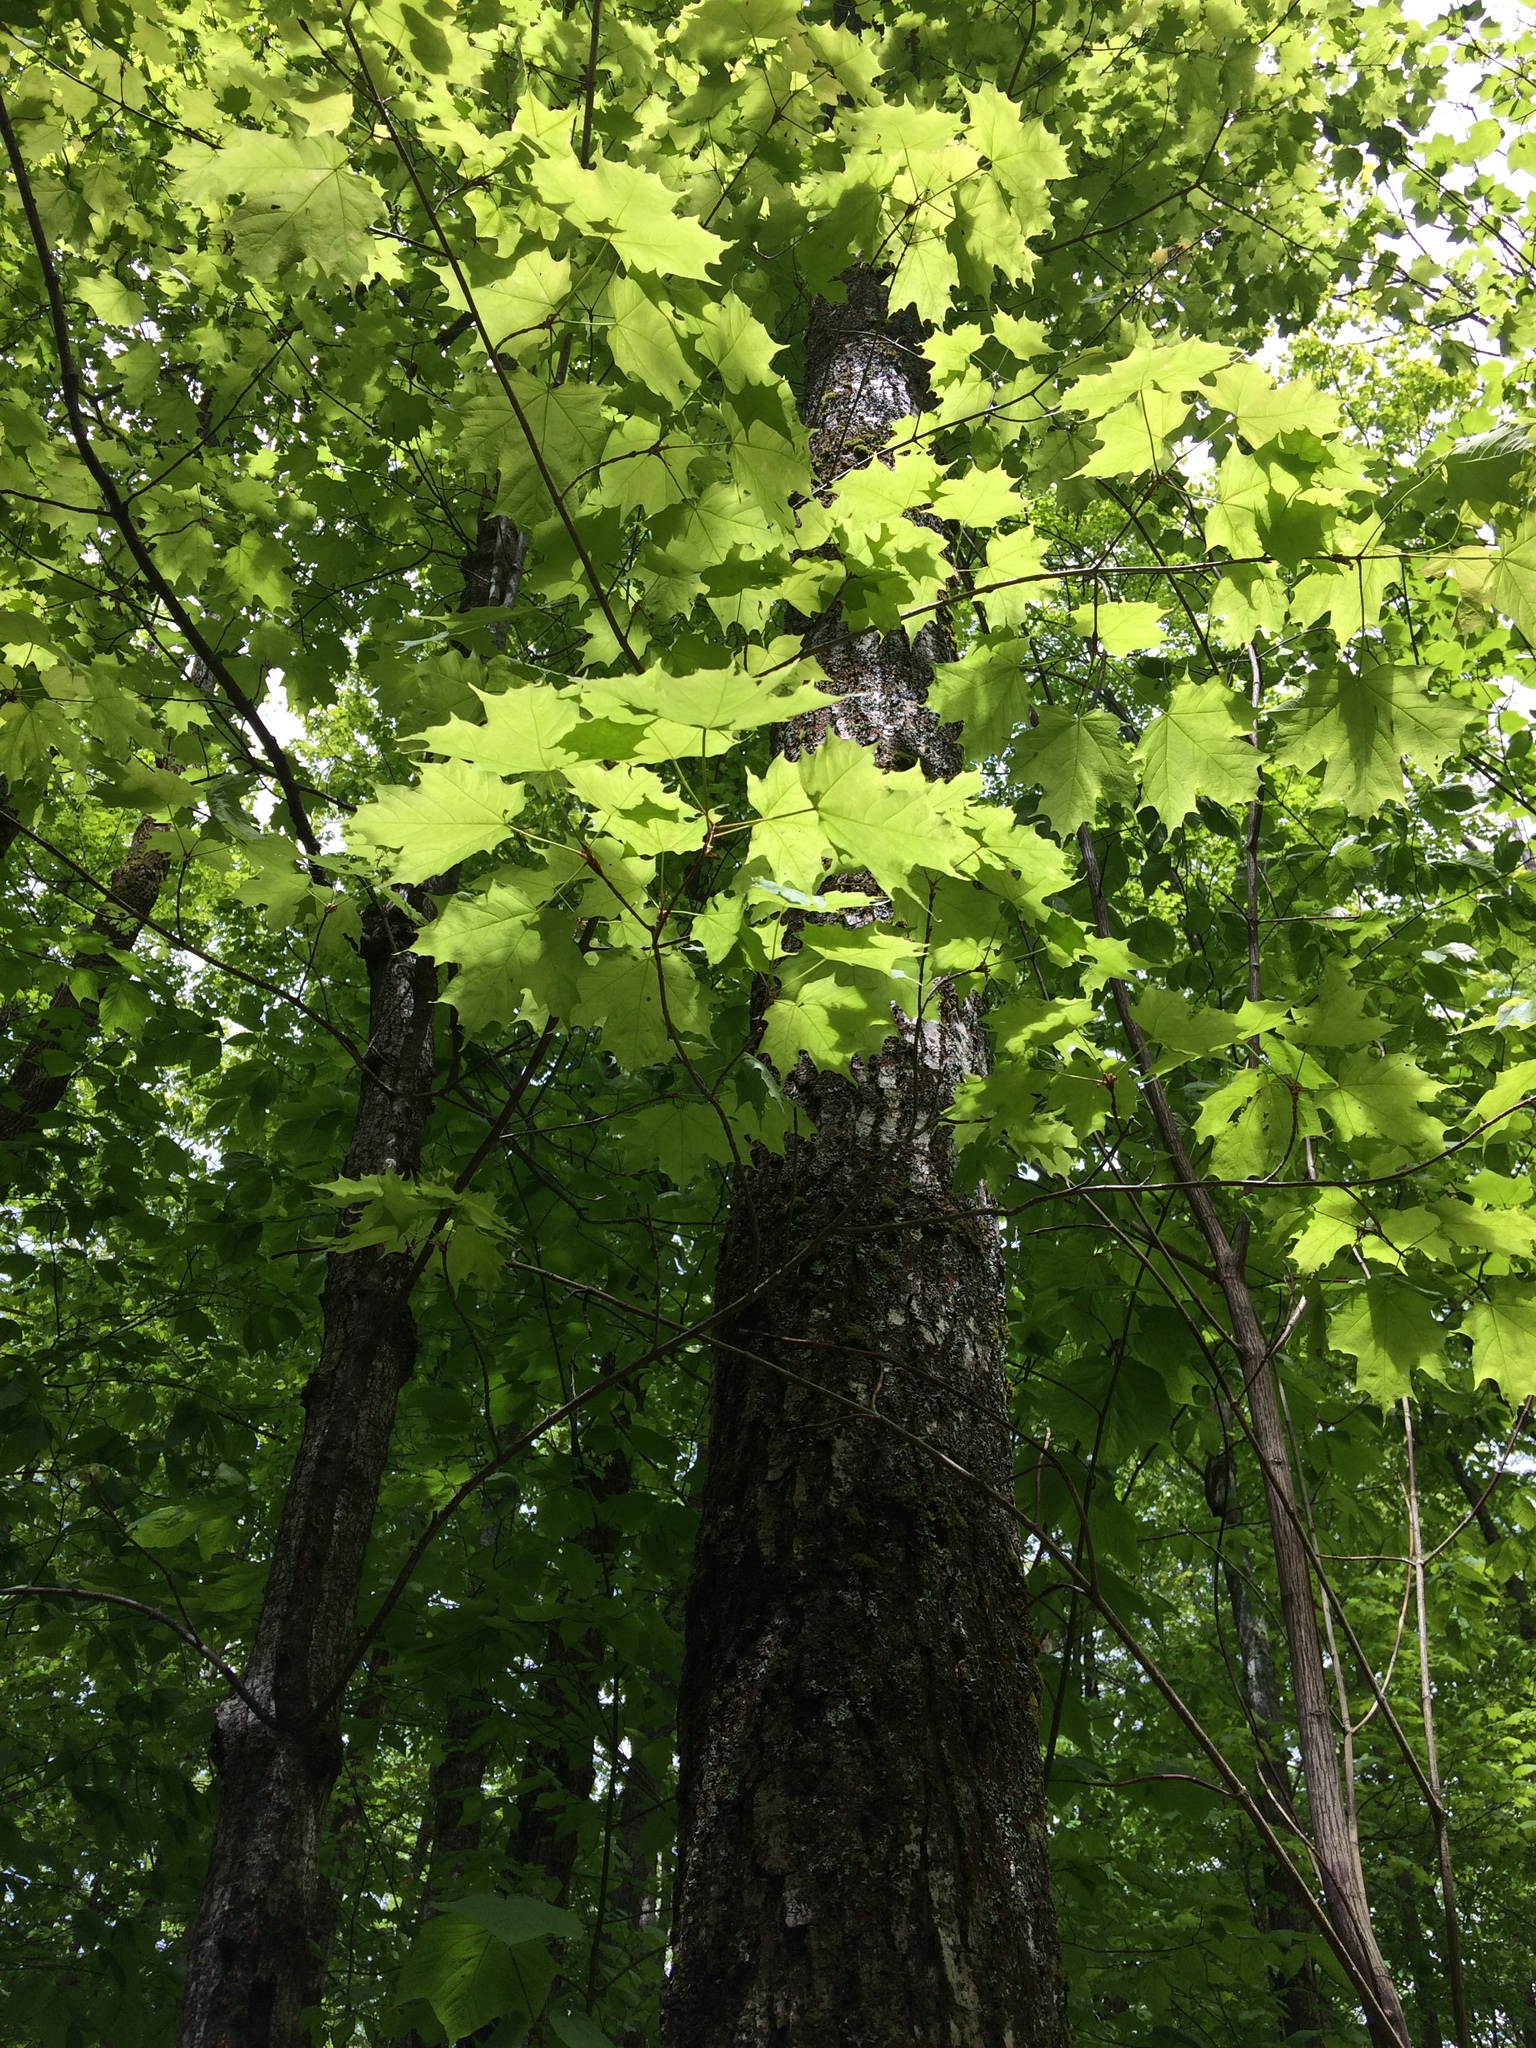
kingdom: Plantae
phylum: Tracheophyta
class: Magnoliopsida
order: Sapindales
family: Sapindaceae
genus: Acer
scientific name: Acer saccharum
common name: Sugar maple
